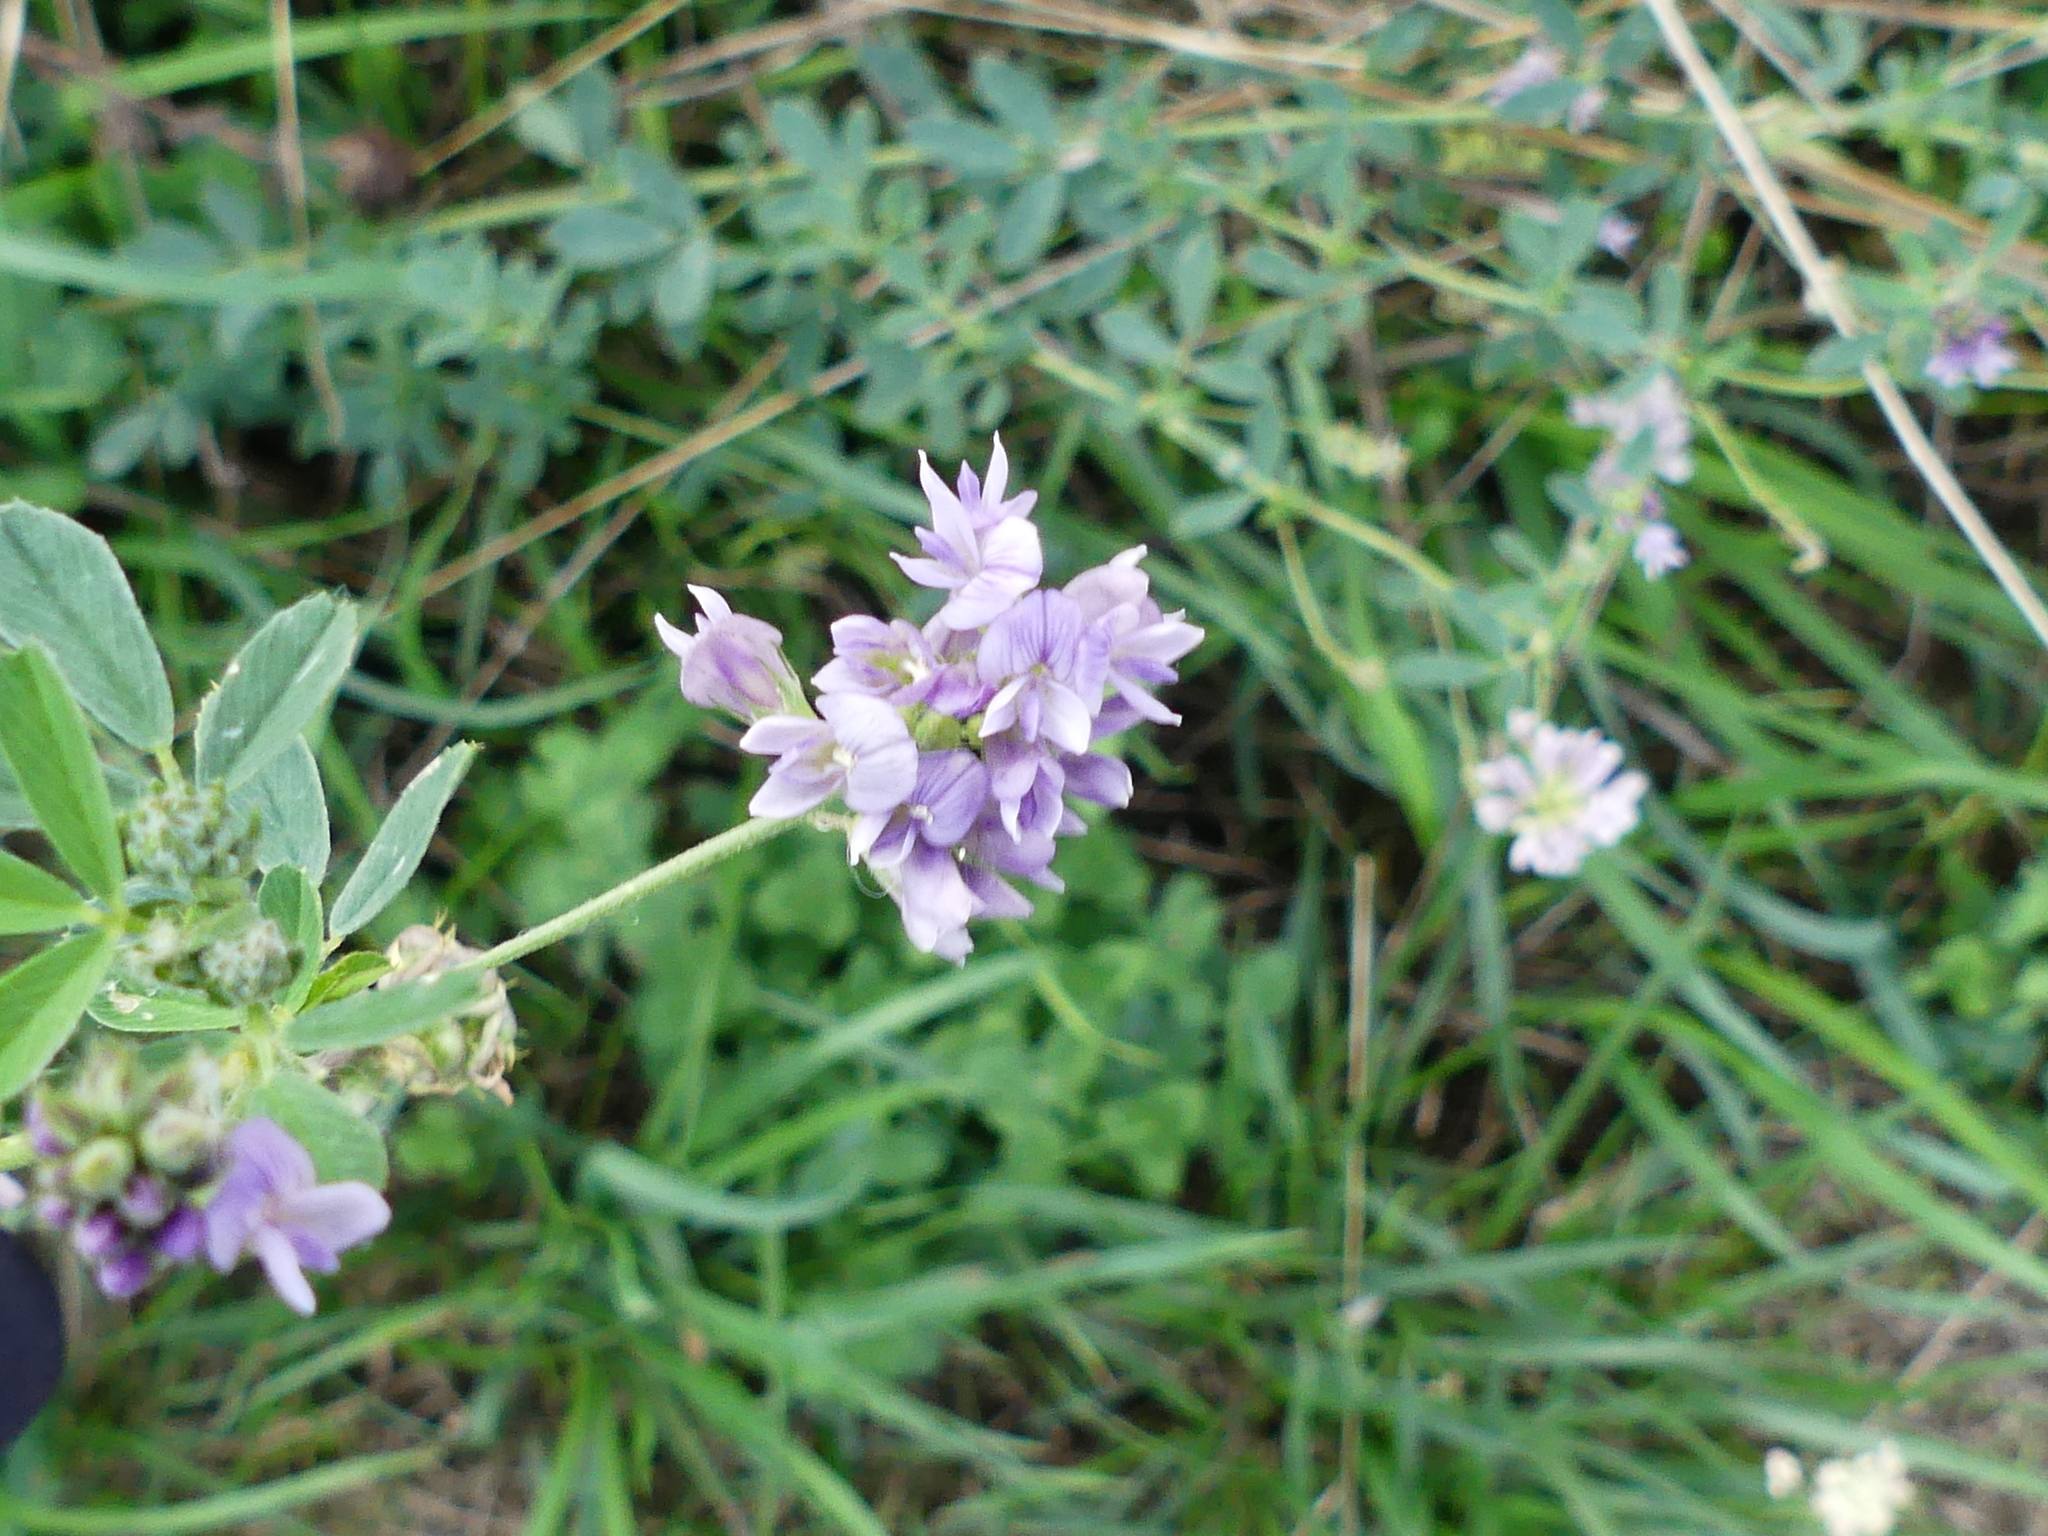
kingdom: Plantae
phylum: Tracheophyta
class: Magnoliopsida
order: Fabales
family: Fabaceae
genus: Medicago
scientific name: Medicago sativa
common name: Alfalfa
